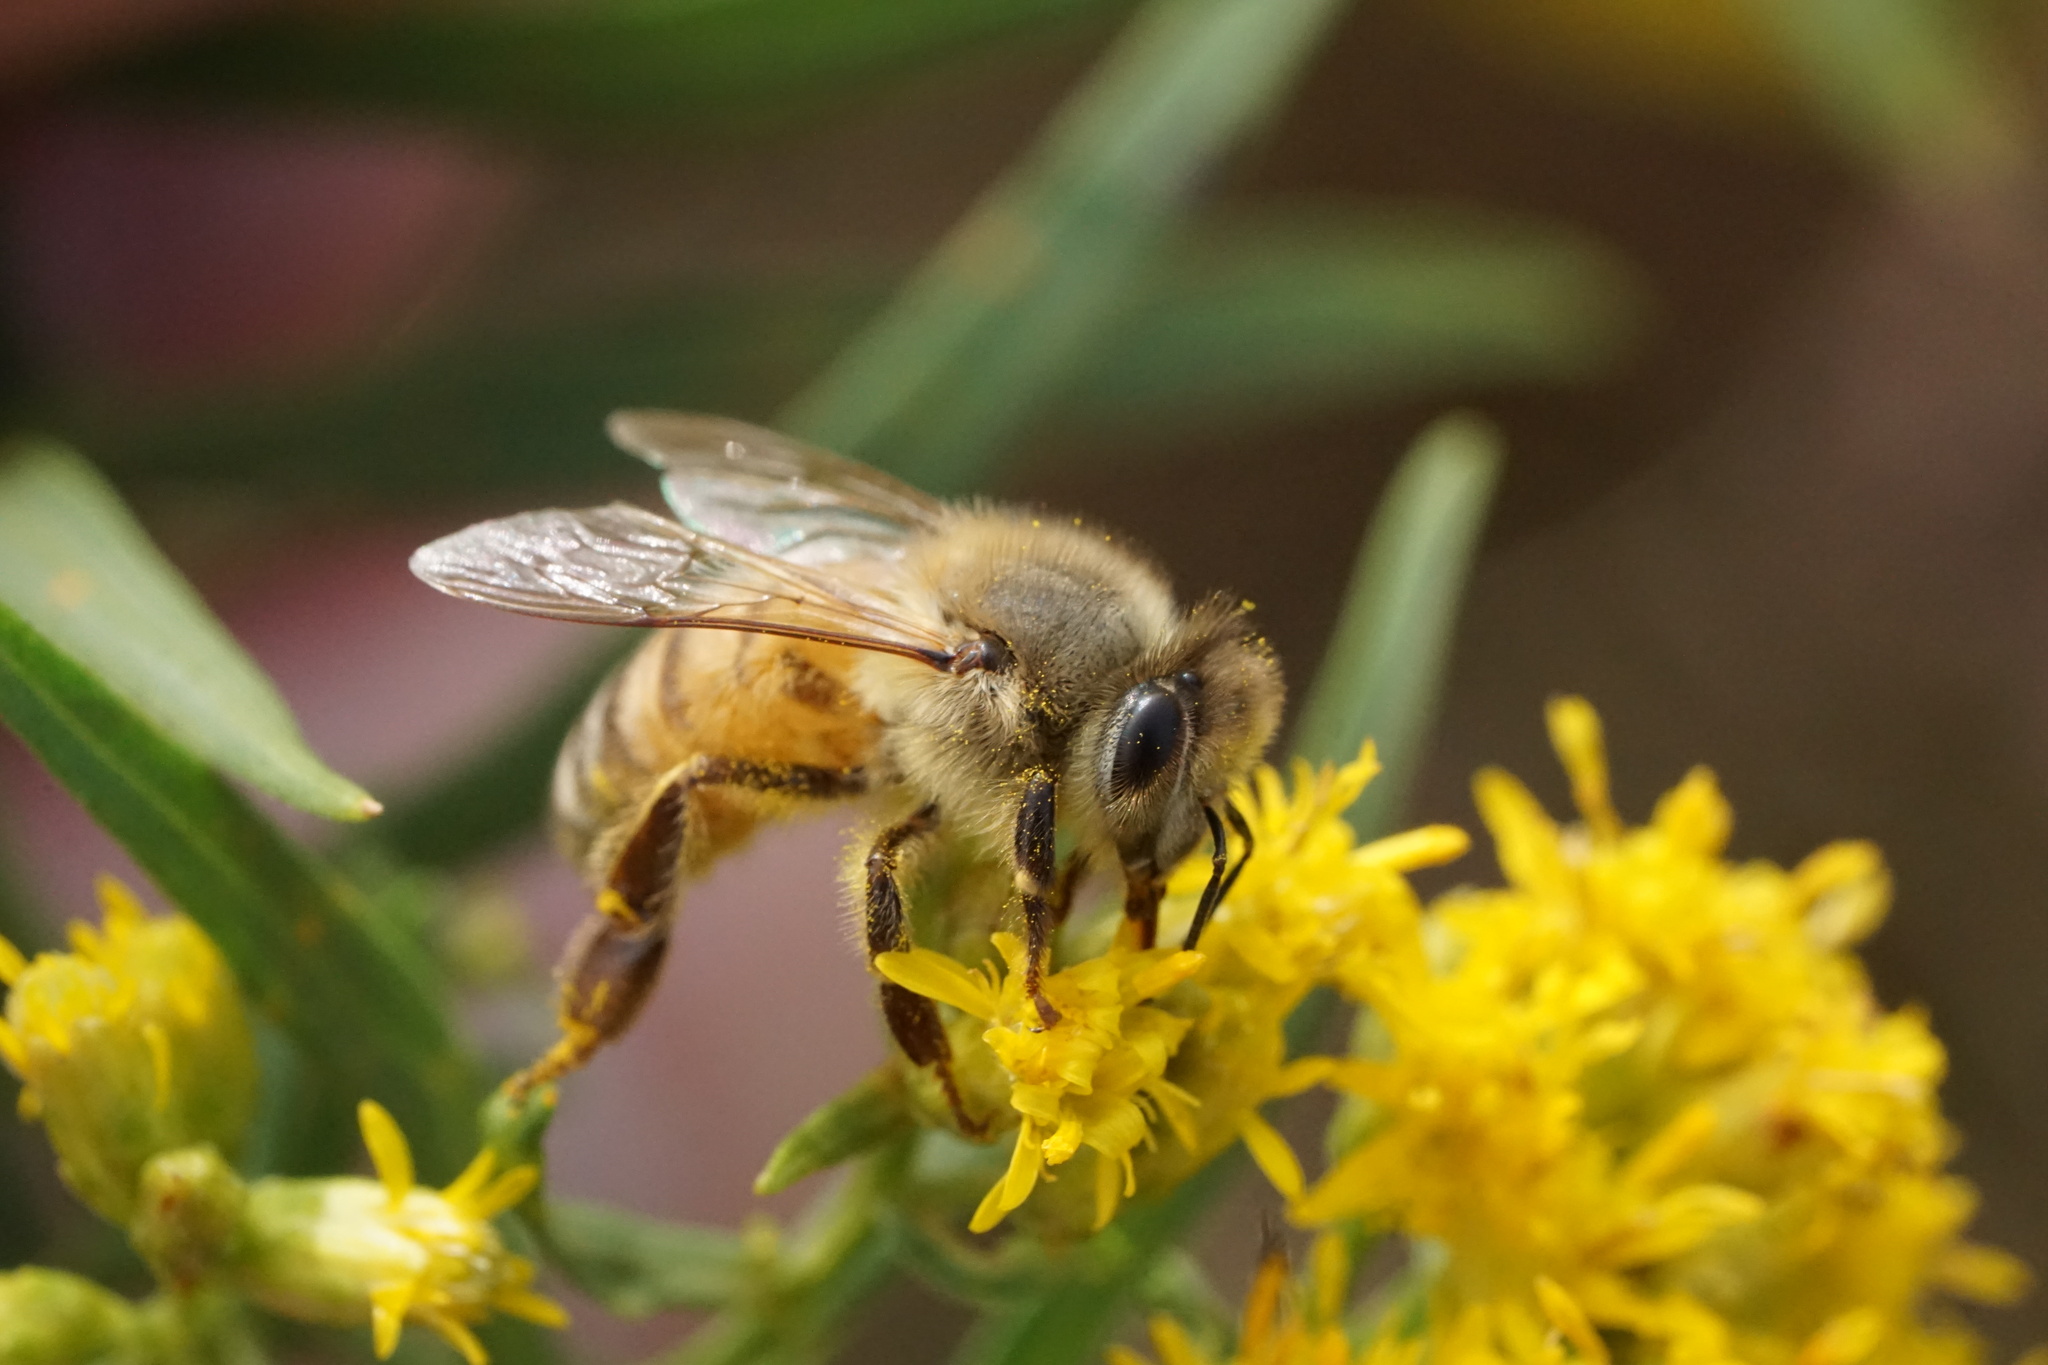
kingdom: Animalia
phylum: Arthropoda
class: Insecta
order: Hymenoptera
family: Apidae
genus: Apis
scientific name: Apis mellifera
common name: Honey bee
